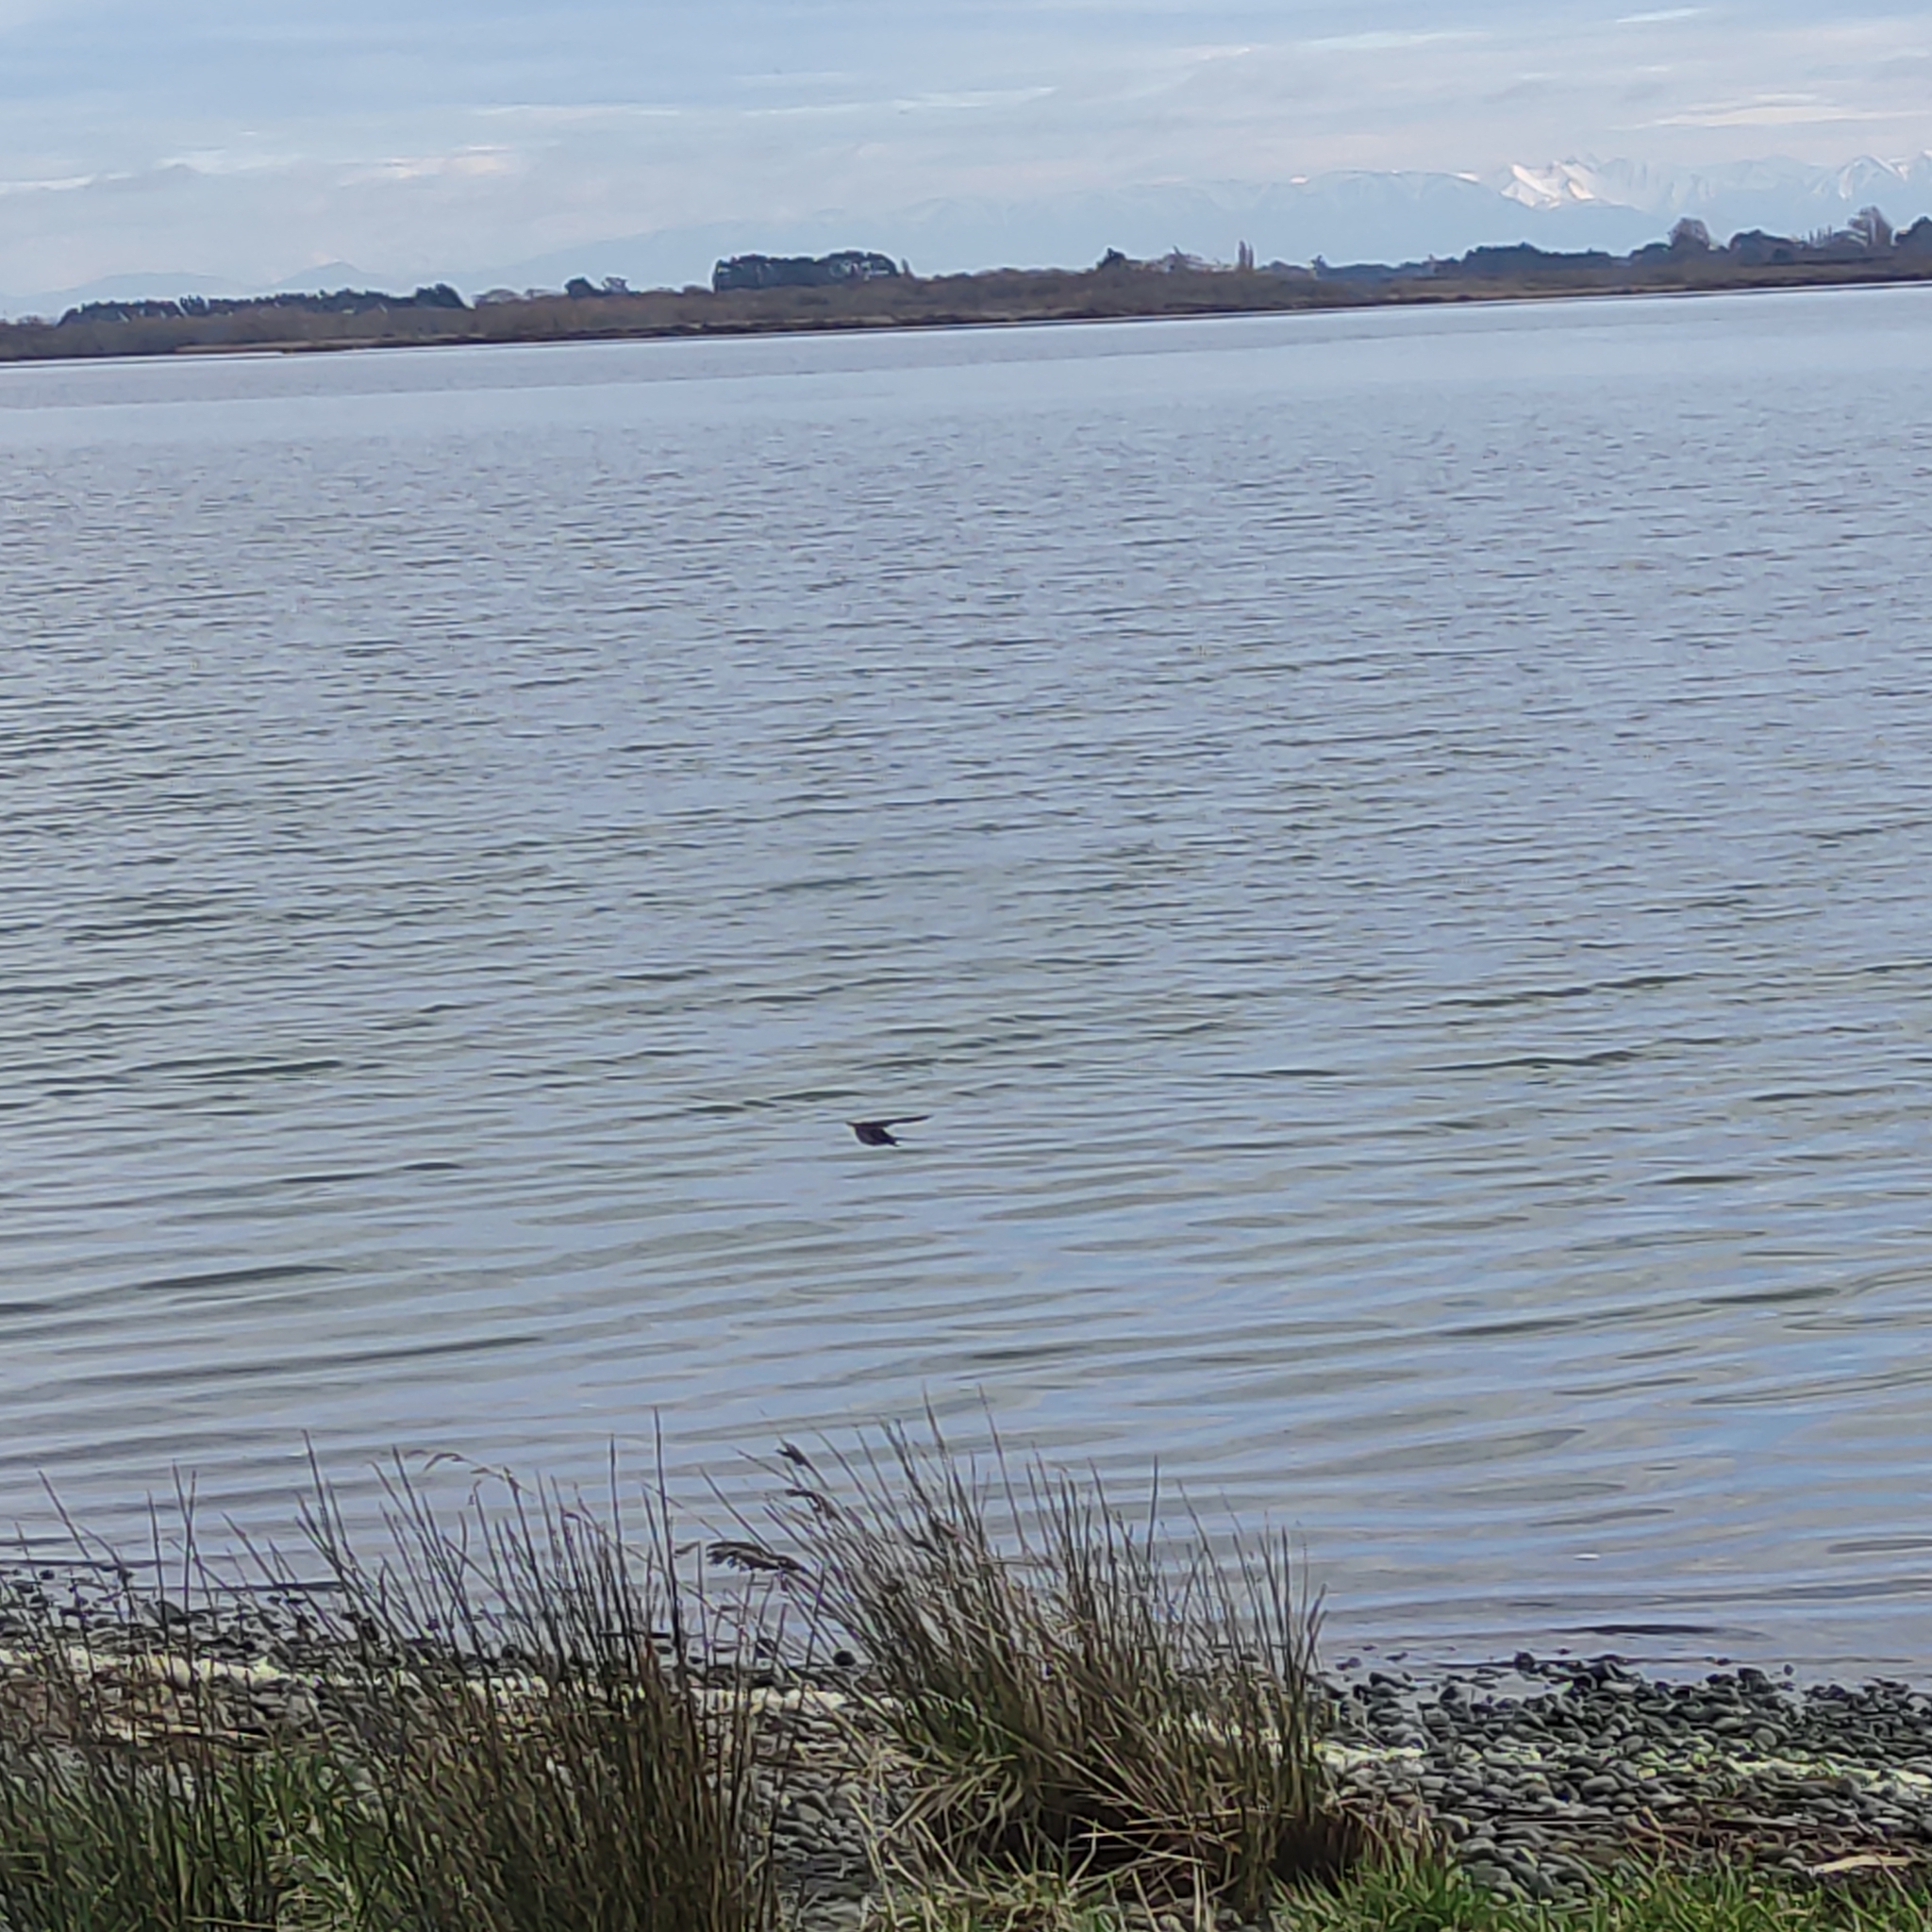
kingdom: Animalia
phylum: Chordata
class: Aves
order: Passeriformes
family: Hirundinidae
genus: Hirundo
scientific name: Hirundo neoxena
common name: Welcome swallow
